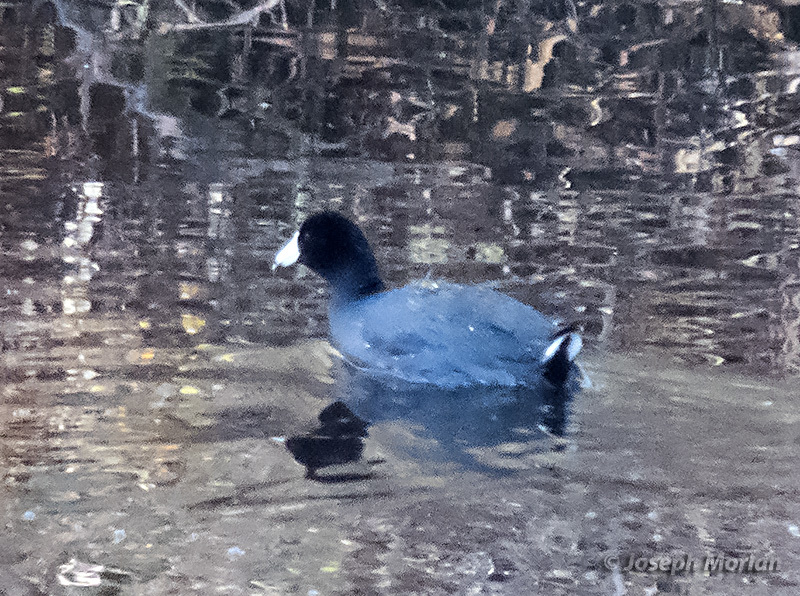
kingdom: Animalia
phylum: Chordata
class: Aves
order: Gruiformes
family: Rallidae
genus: Fulica
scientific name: Fulica americana
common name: American coot
